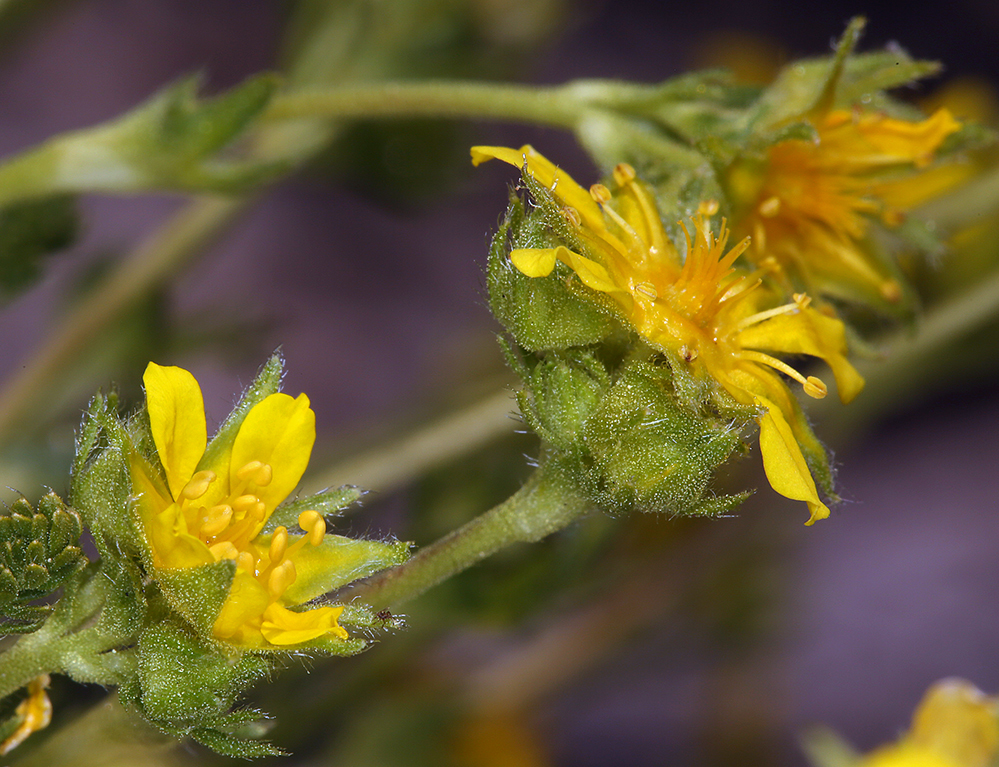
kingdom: Plantae
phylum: Tracheophyta
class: Magnoliopsida
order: Rosales
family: Rosaceae
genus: Potentilla
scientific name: Potentilla
